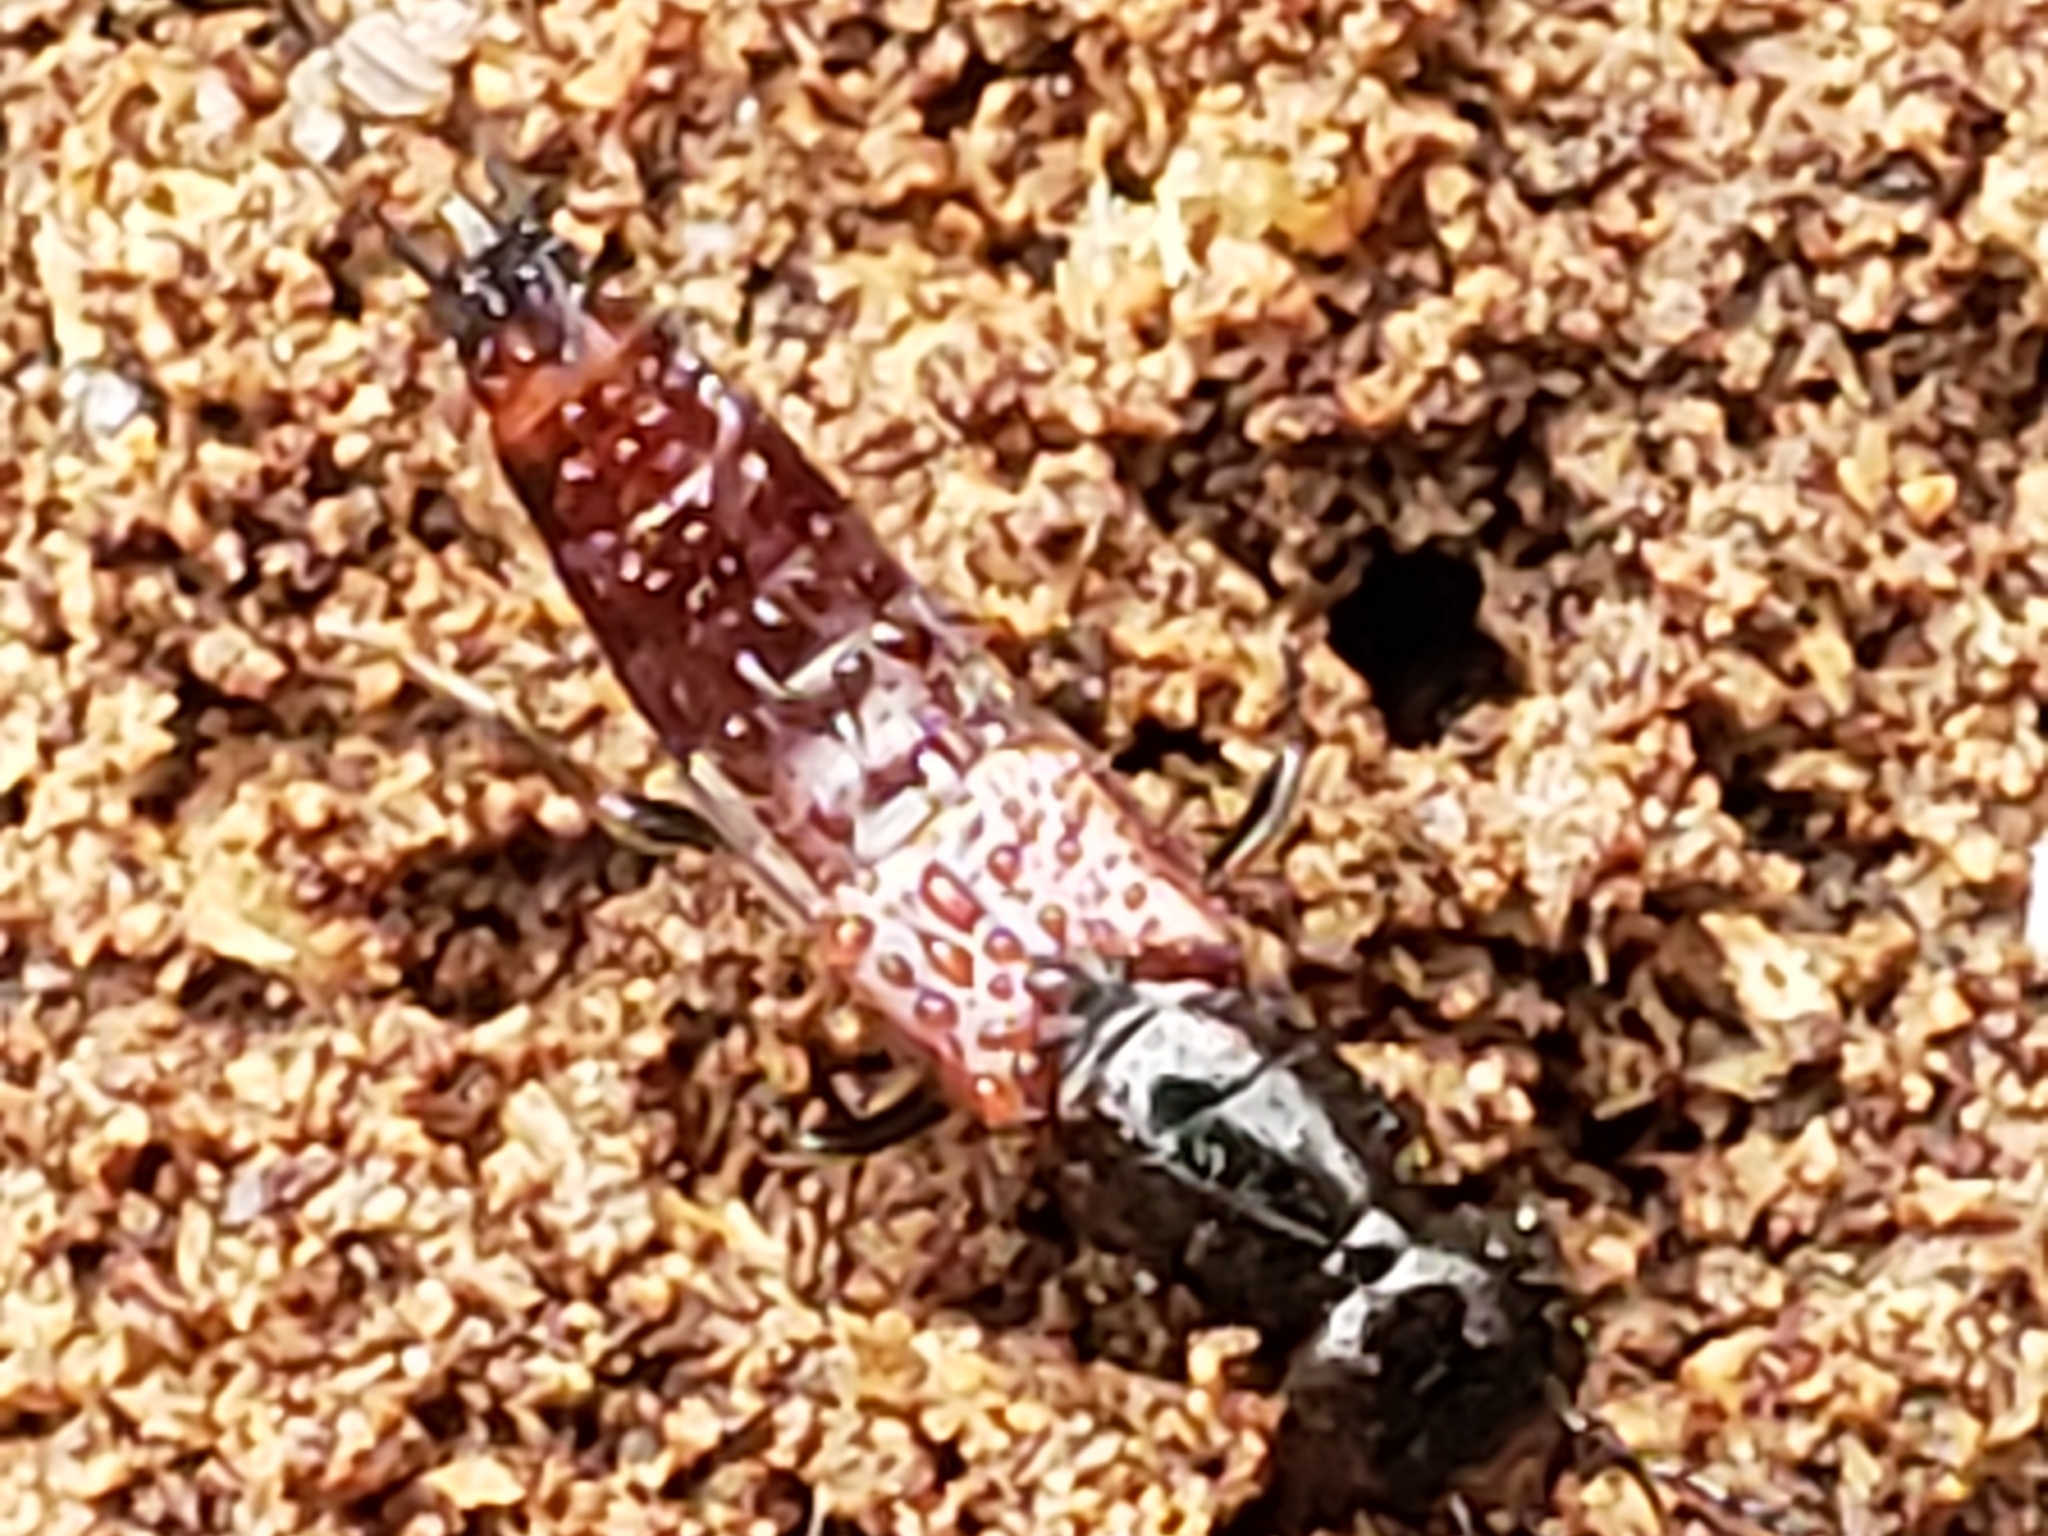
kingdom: Animalia
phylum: Arthropoda
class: Insecta
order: Coleoptera
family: Staphylinidae
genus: Hesperus
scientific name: Hesperus baltimorensis
